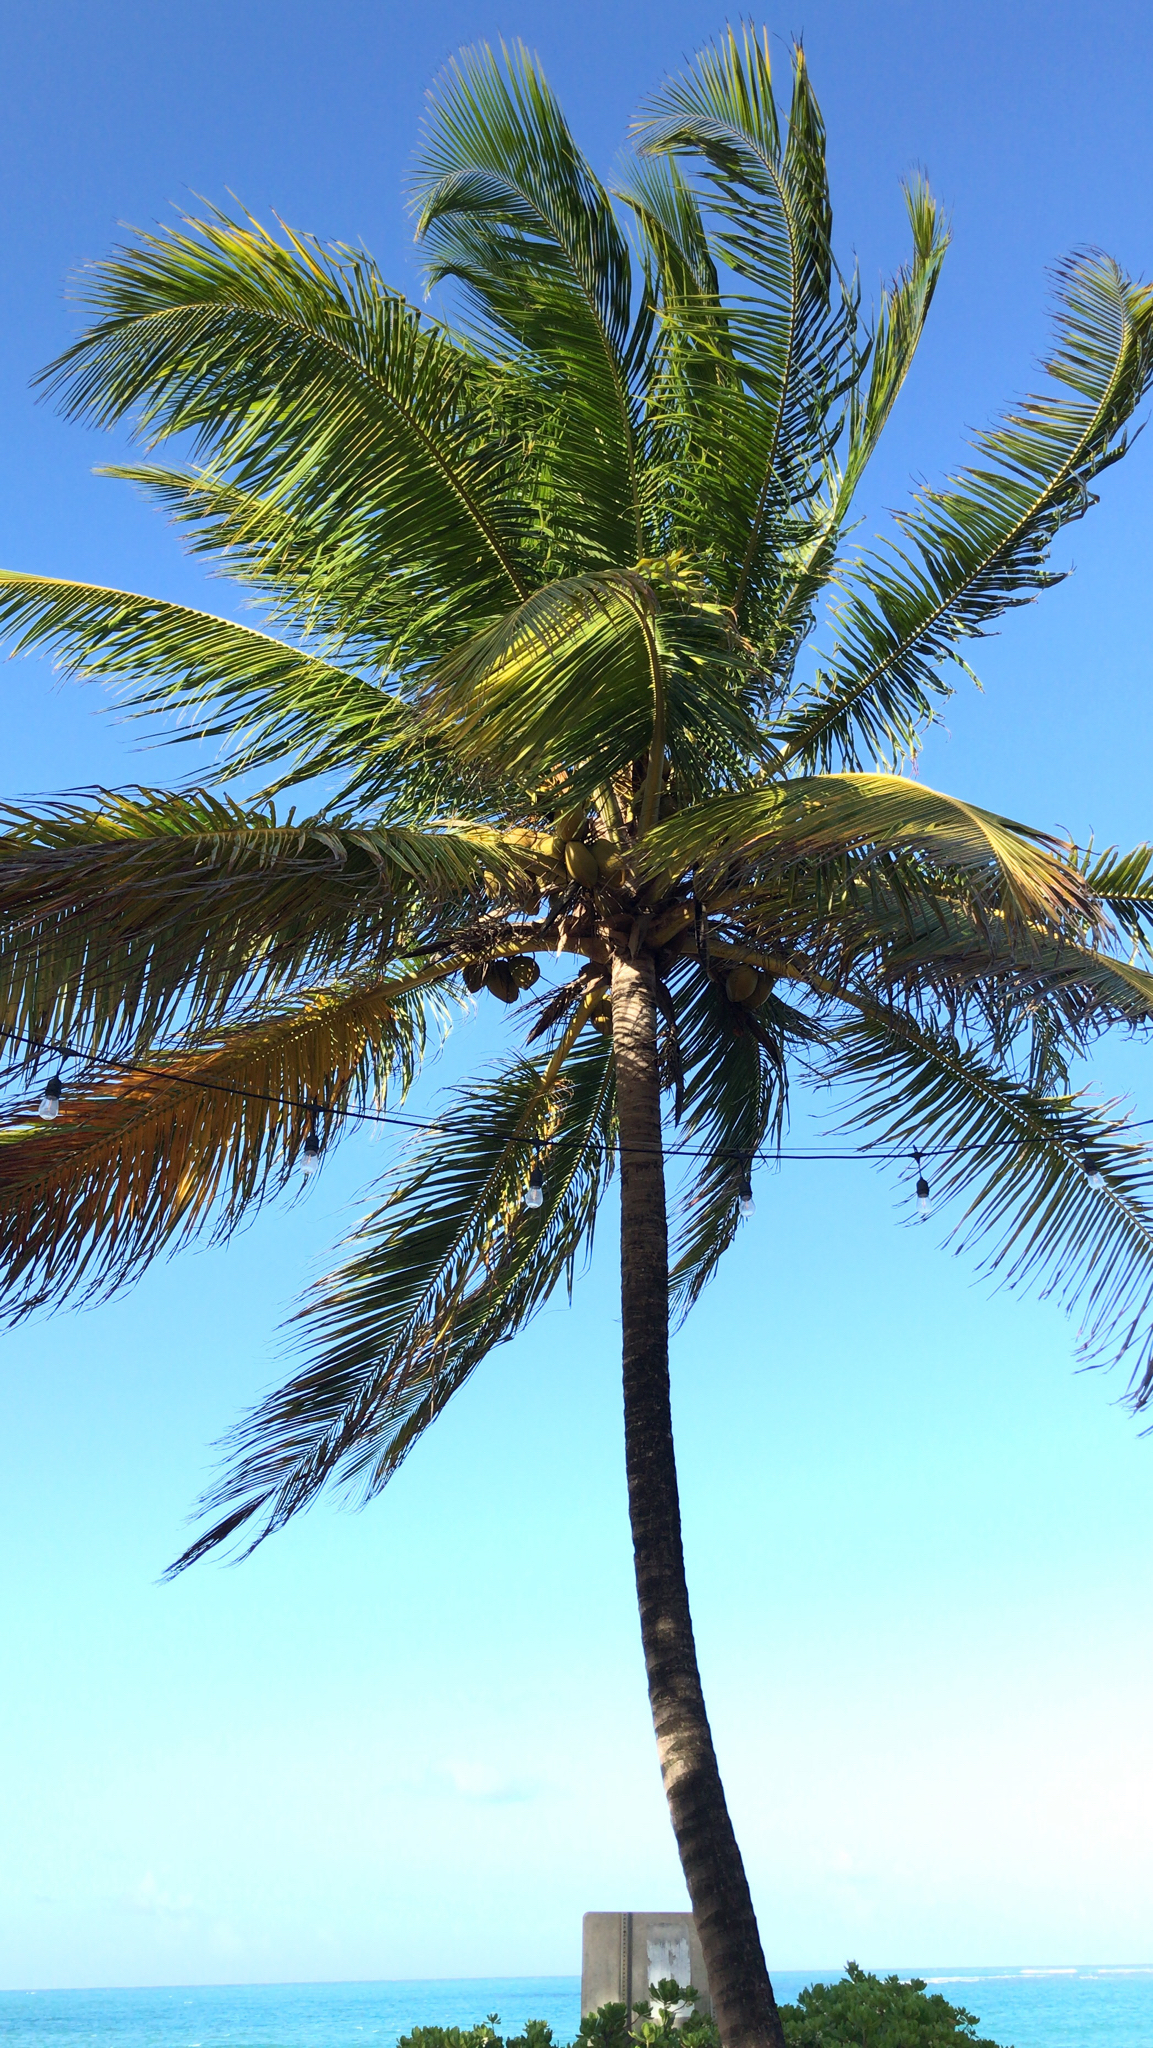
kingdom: Plantae
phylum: Tracheophyta
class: Liliopsida
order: Arecales
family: Arecaceae
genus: Cocos
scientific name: Cocos nucifera
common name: Coconut palm
